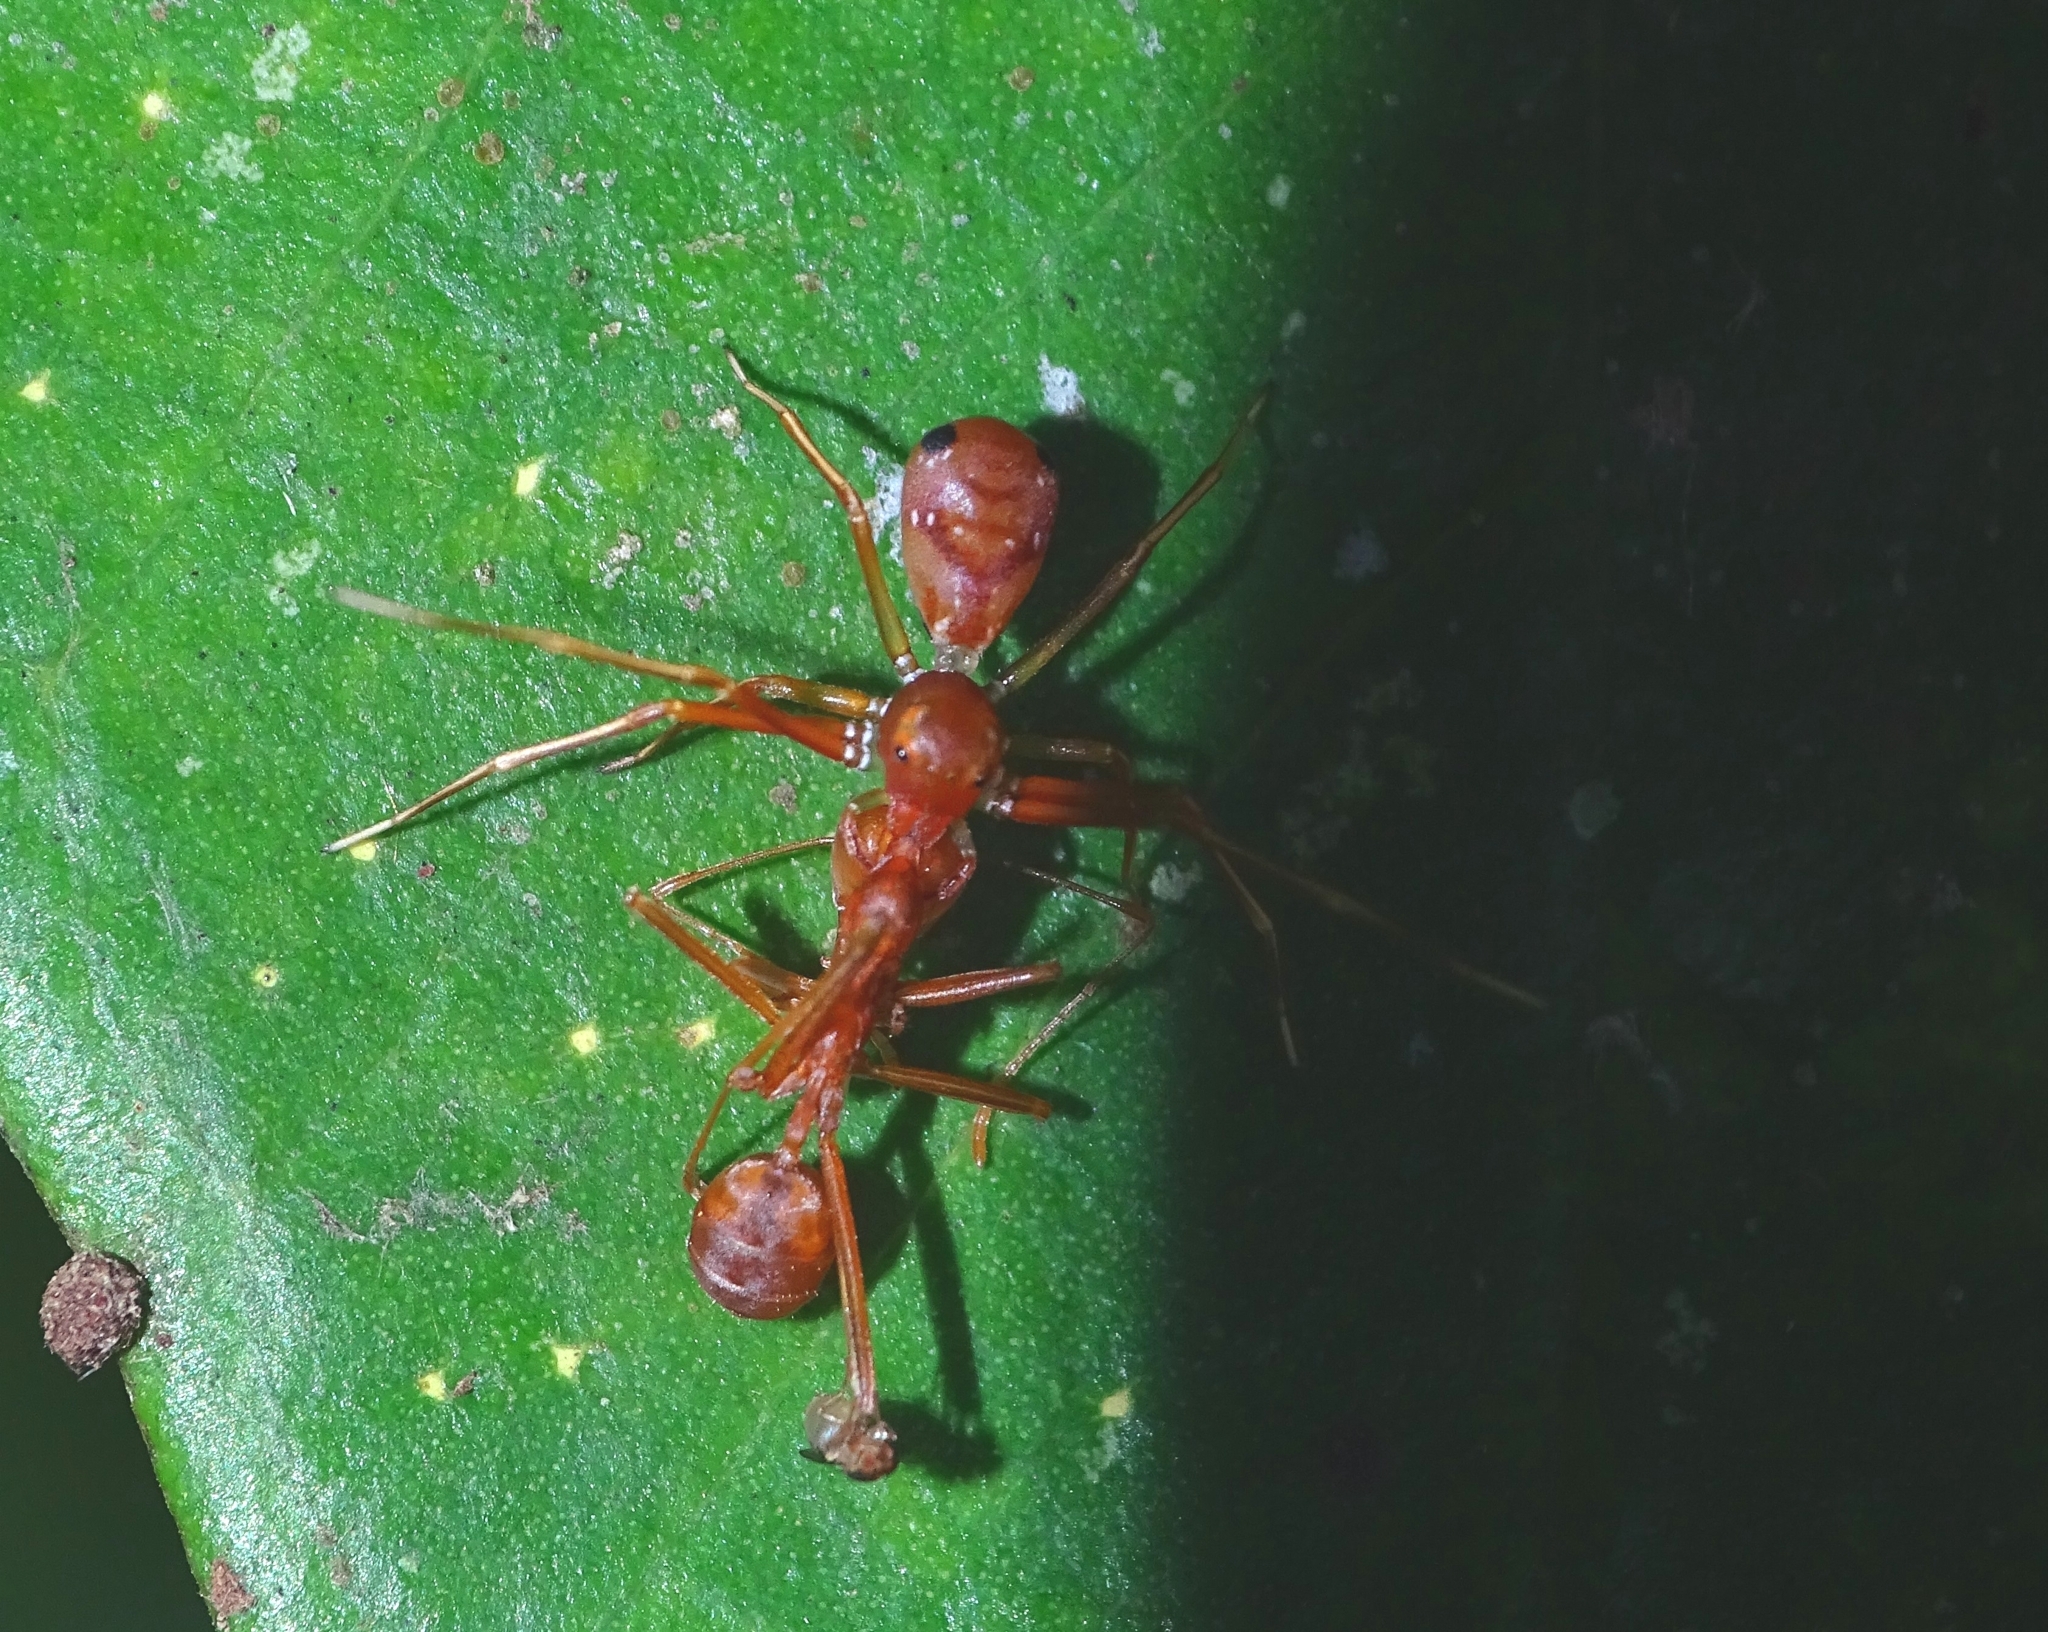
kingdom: Animalia
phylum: Arthropoda
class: Arachnida
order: Araneae
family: Thomisidae
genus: Amyciaea
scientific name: Amyciaea forticeps
